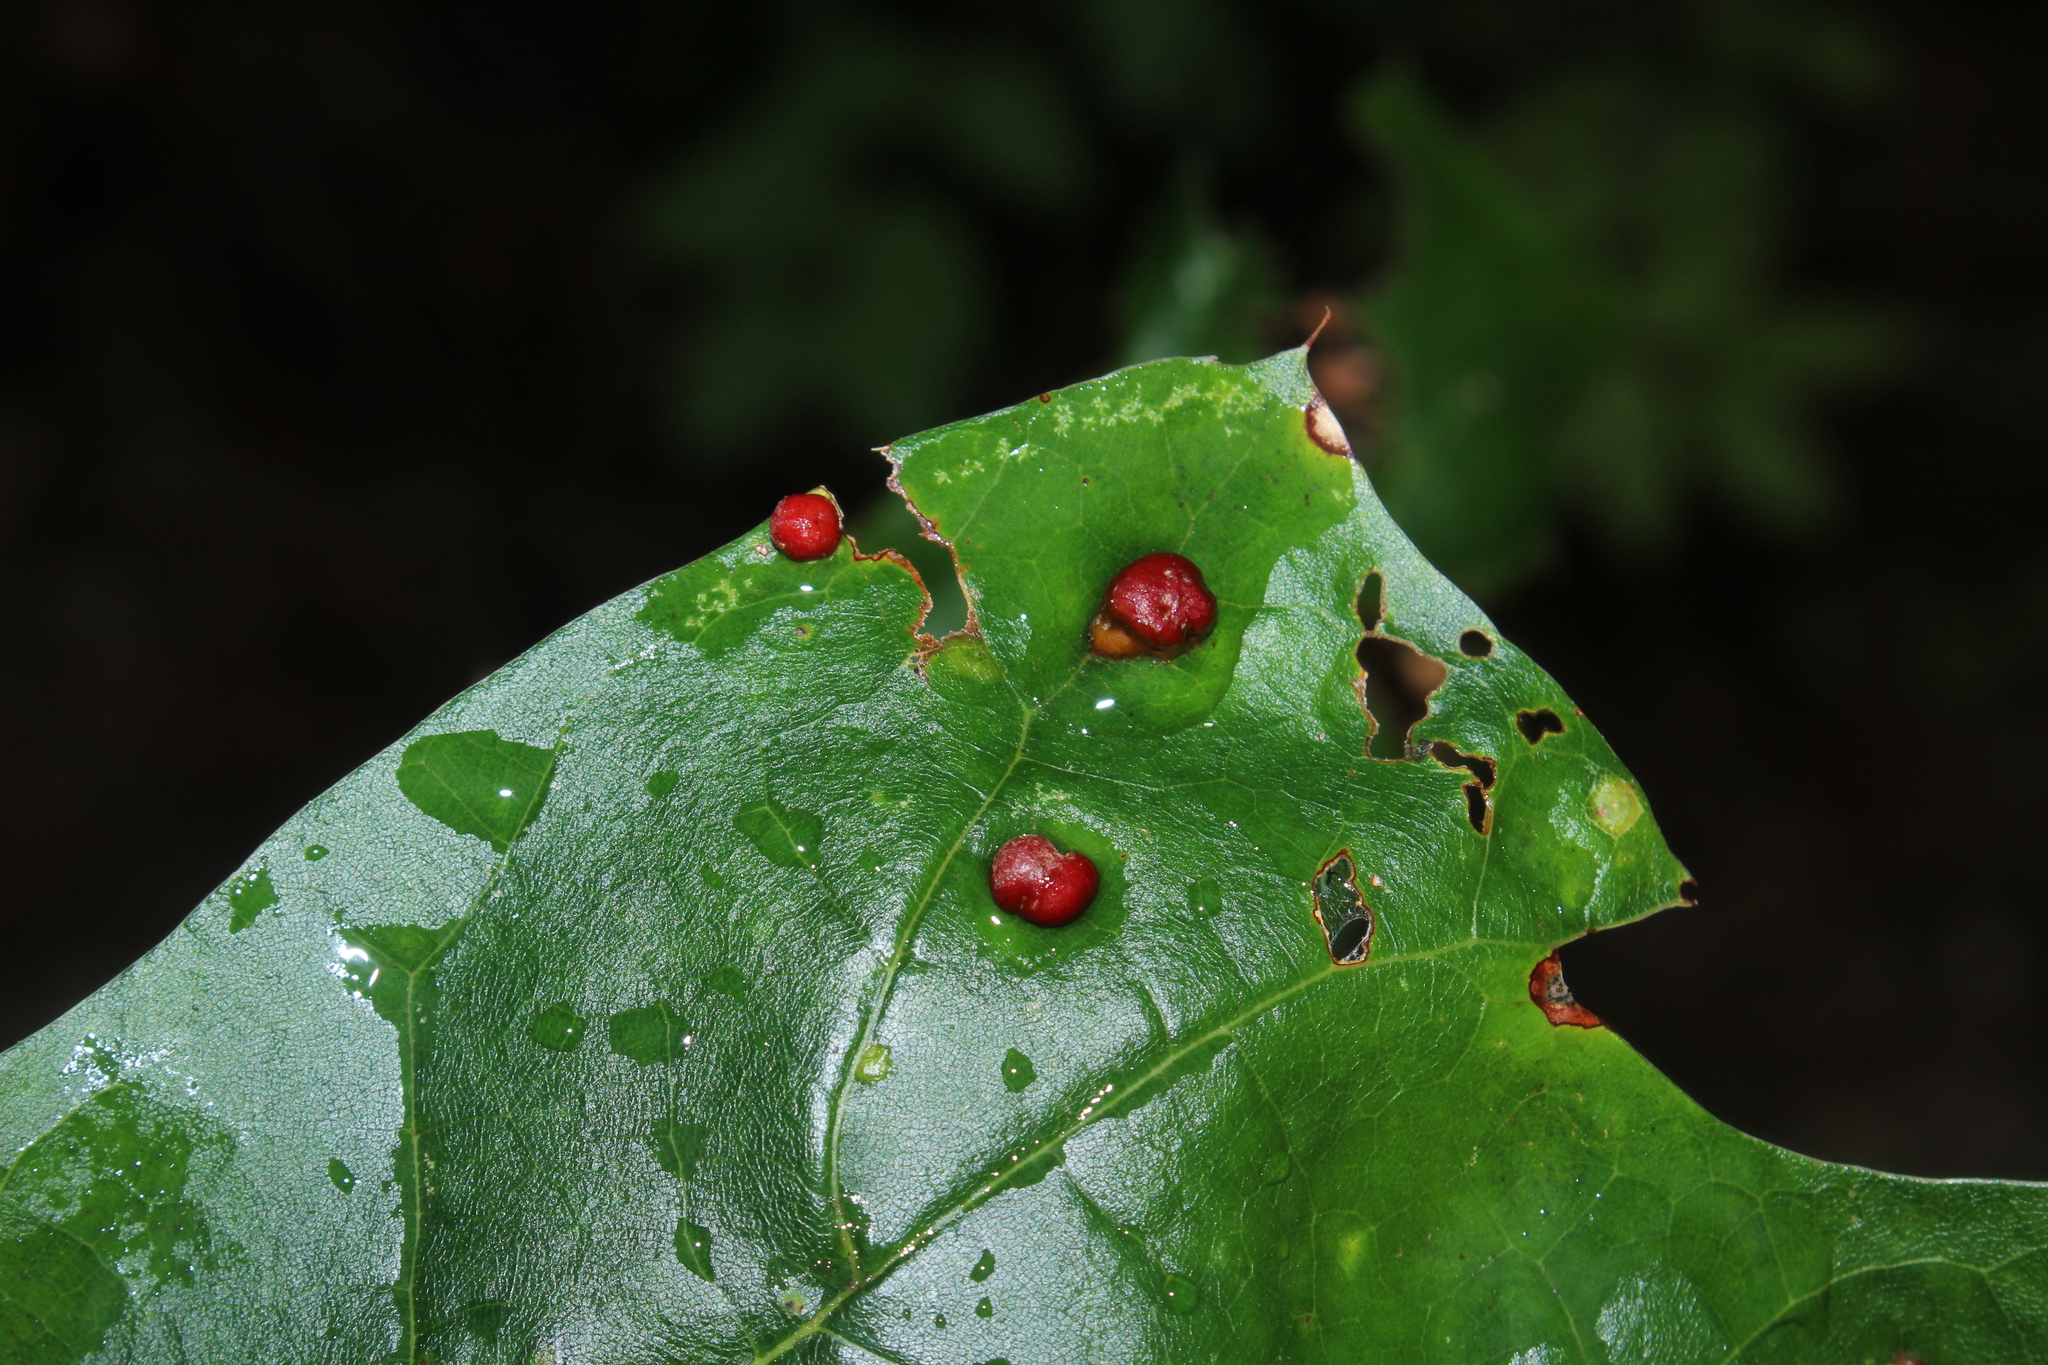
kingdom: Animalia
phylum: Arthropoda
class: Insecta
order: Diptera
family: Cecidomyiidae
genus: Polystepha
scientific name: Polystepha pilulae
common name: Oak leaf gall midge
